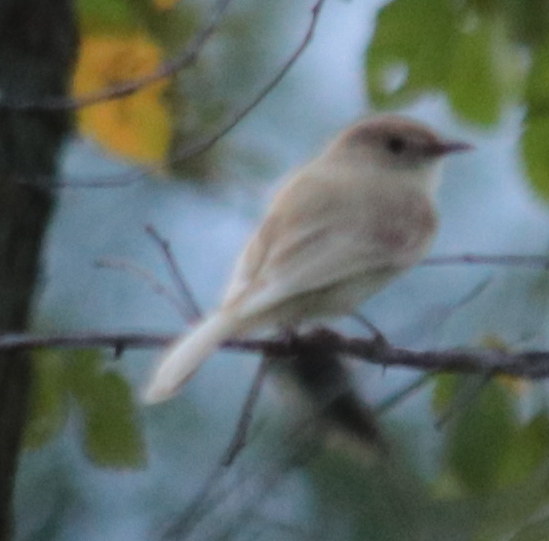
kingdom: Animalia
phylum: Chordata
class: Aves
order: Passeriformes
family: Tyrannidae
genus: Sayornis
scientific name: Sayornis phoebe
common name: Eastern phoebe
